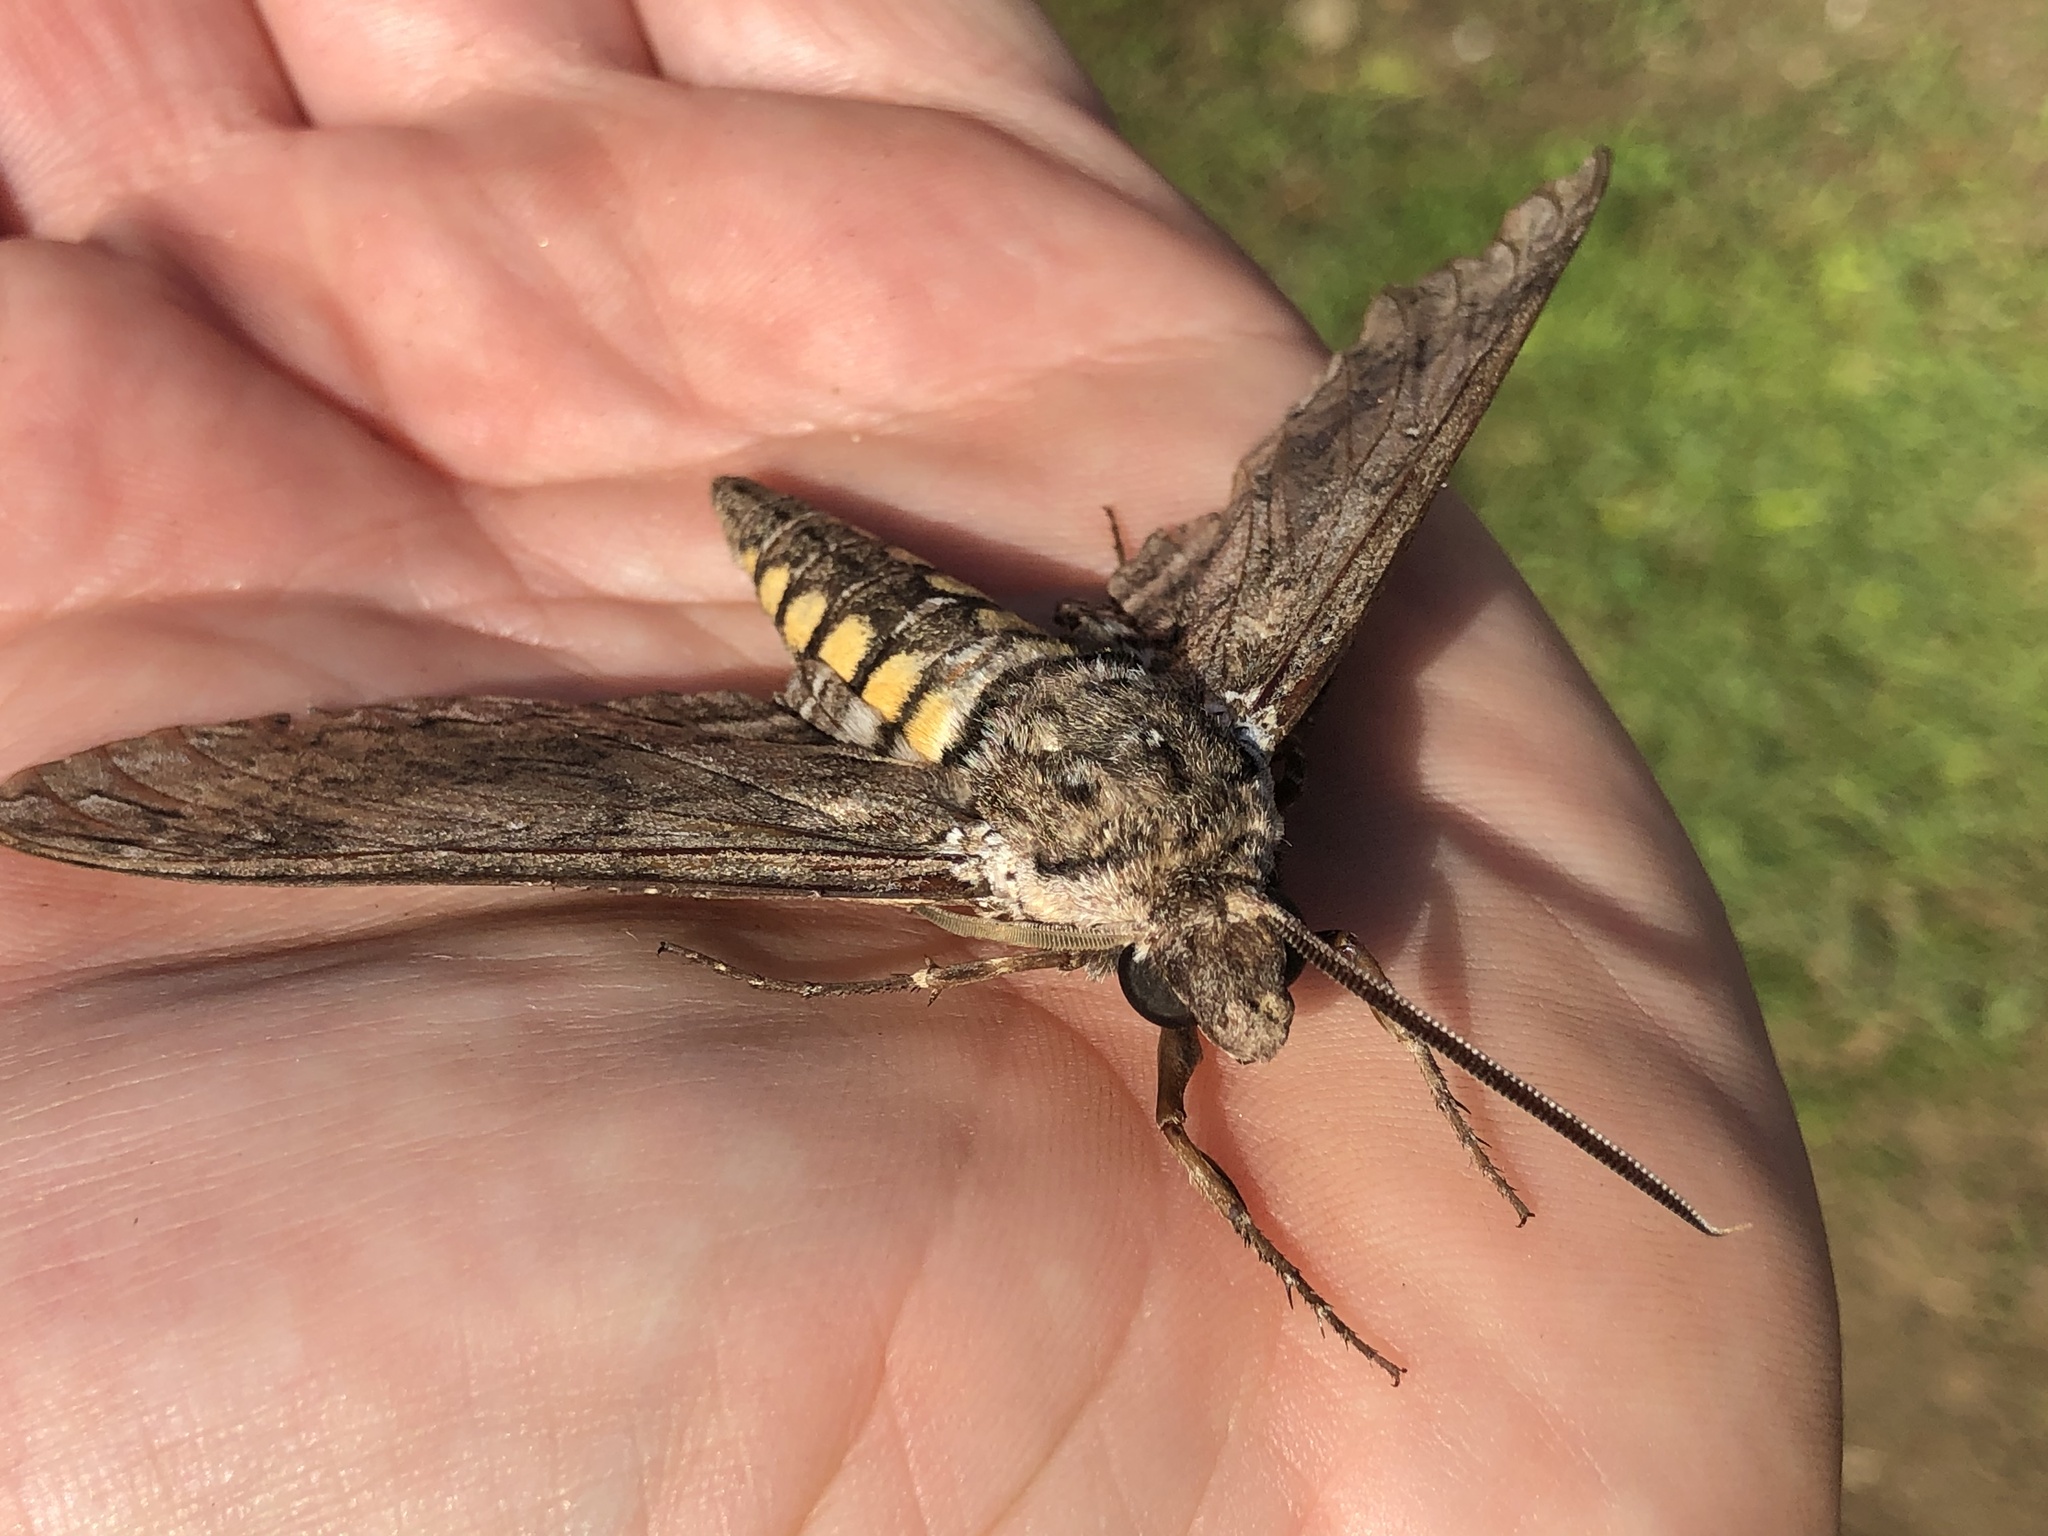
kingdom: Animalia
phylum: Arthropoda
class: Insecta
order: Lepidoptera
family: Sphingidae
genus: Manduca
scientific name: Manduca sexta
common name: Carolina sphinx
